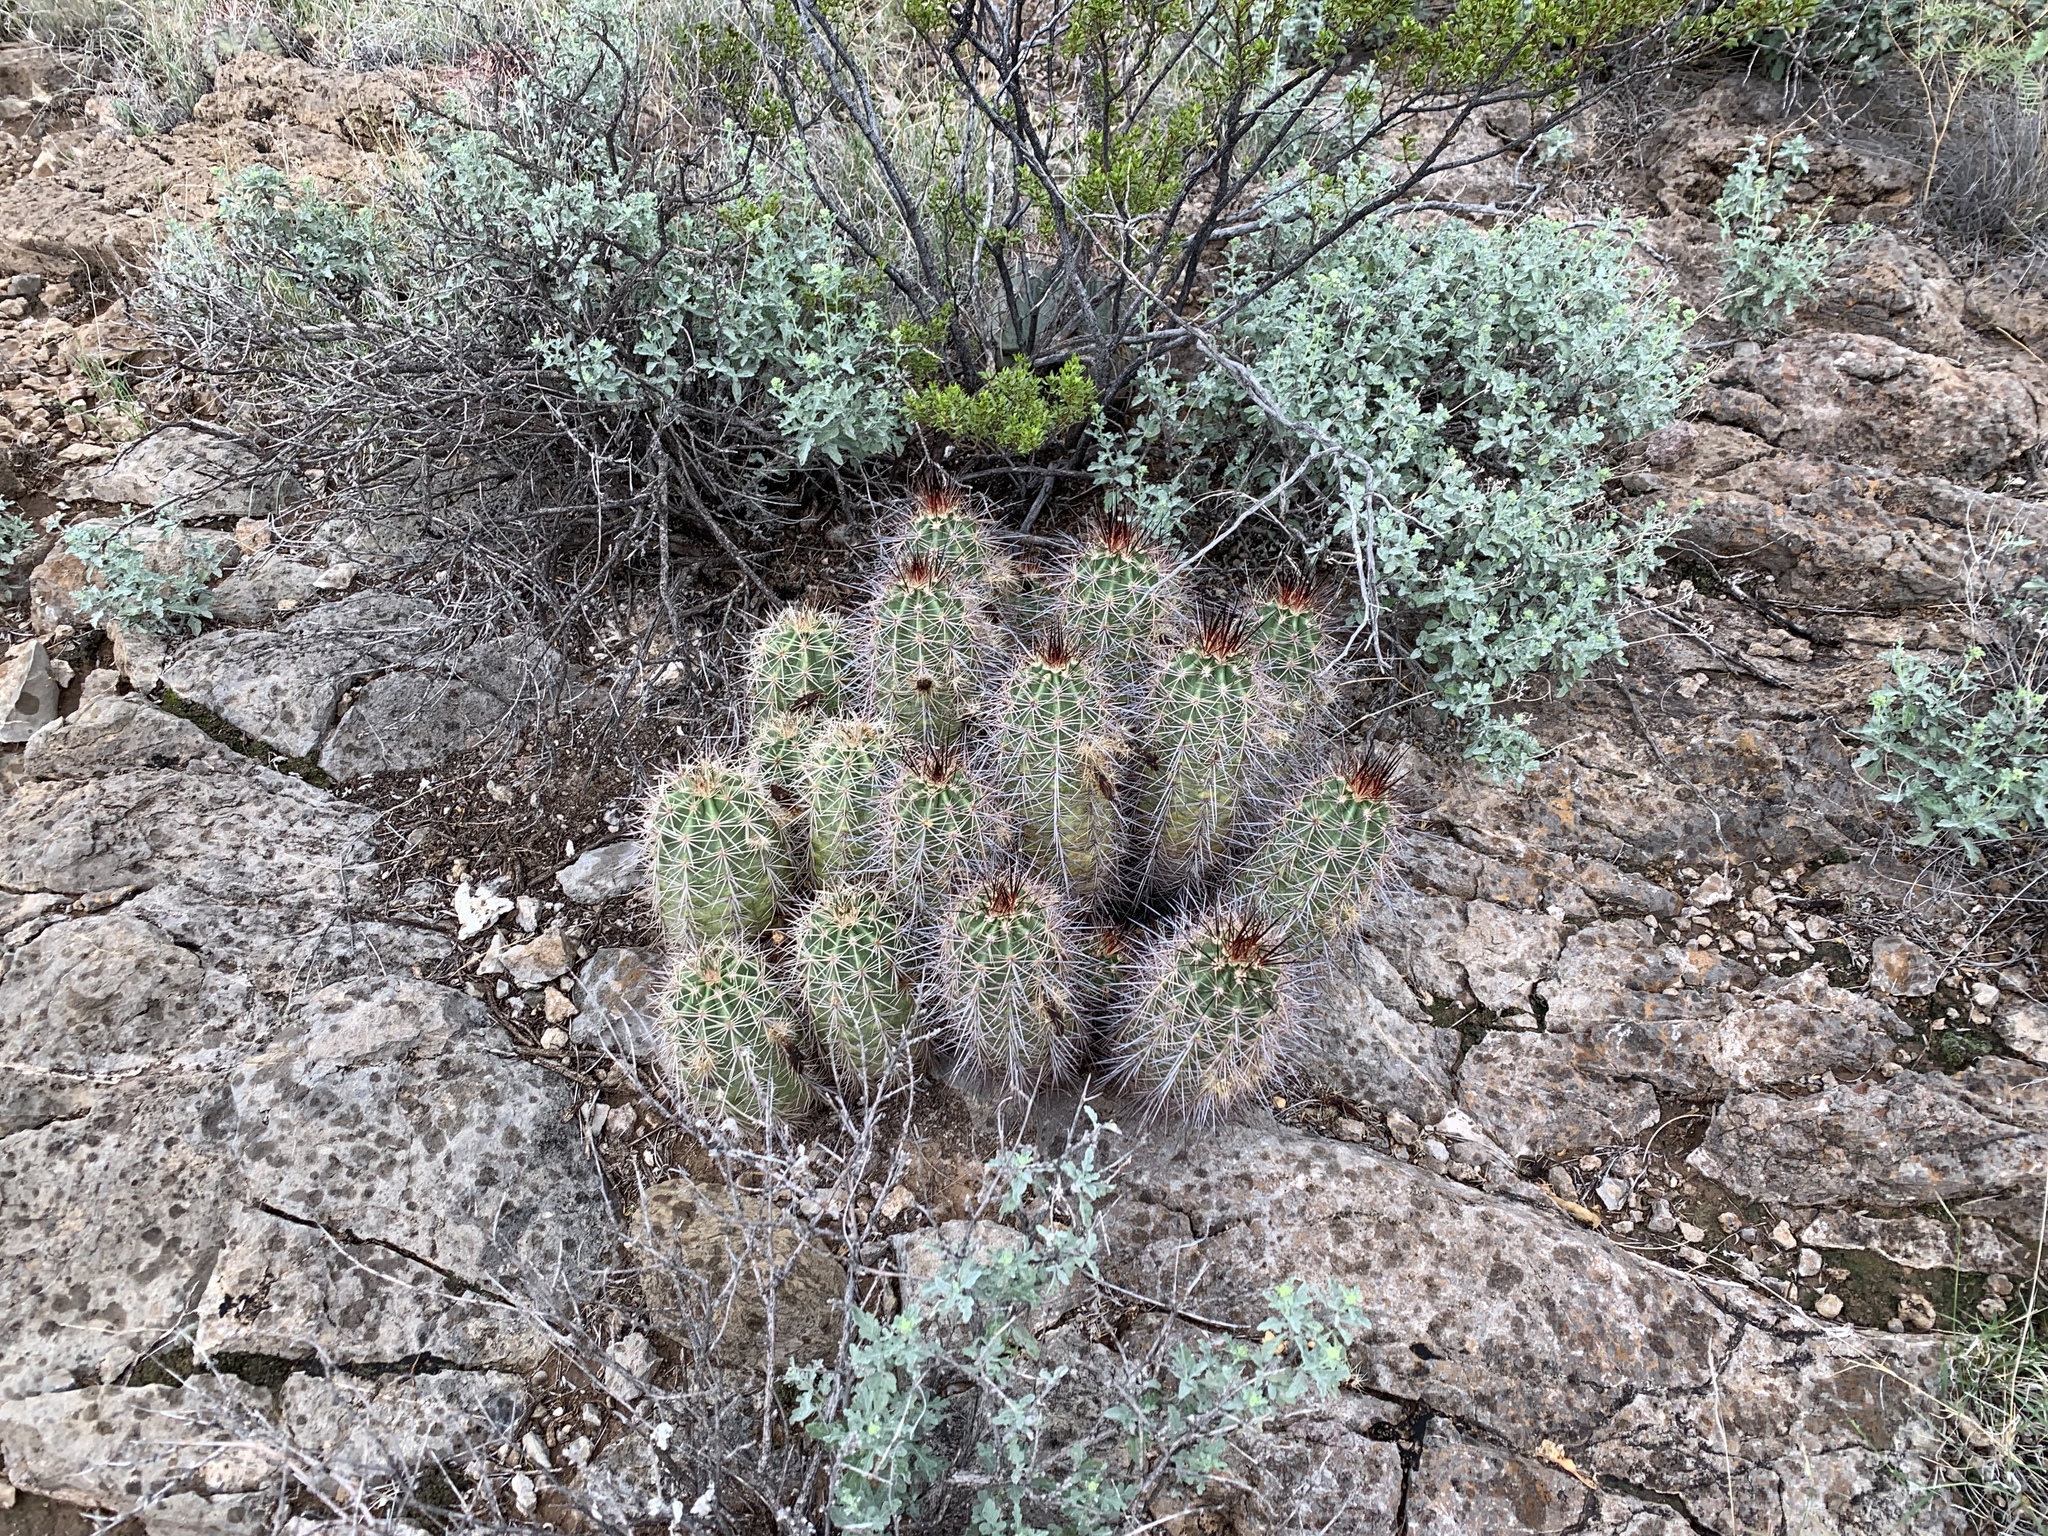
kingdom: Plantae
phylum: Tracheophyta
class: Magnoliopsida
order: Caryophyllales
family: Cactaceae
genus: Echinocereus
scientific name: Echinocereus coccineus
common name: Scarlet hedgehog cactus
